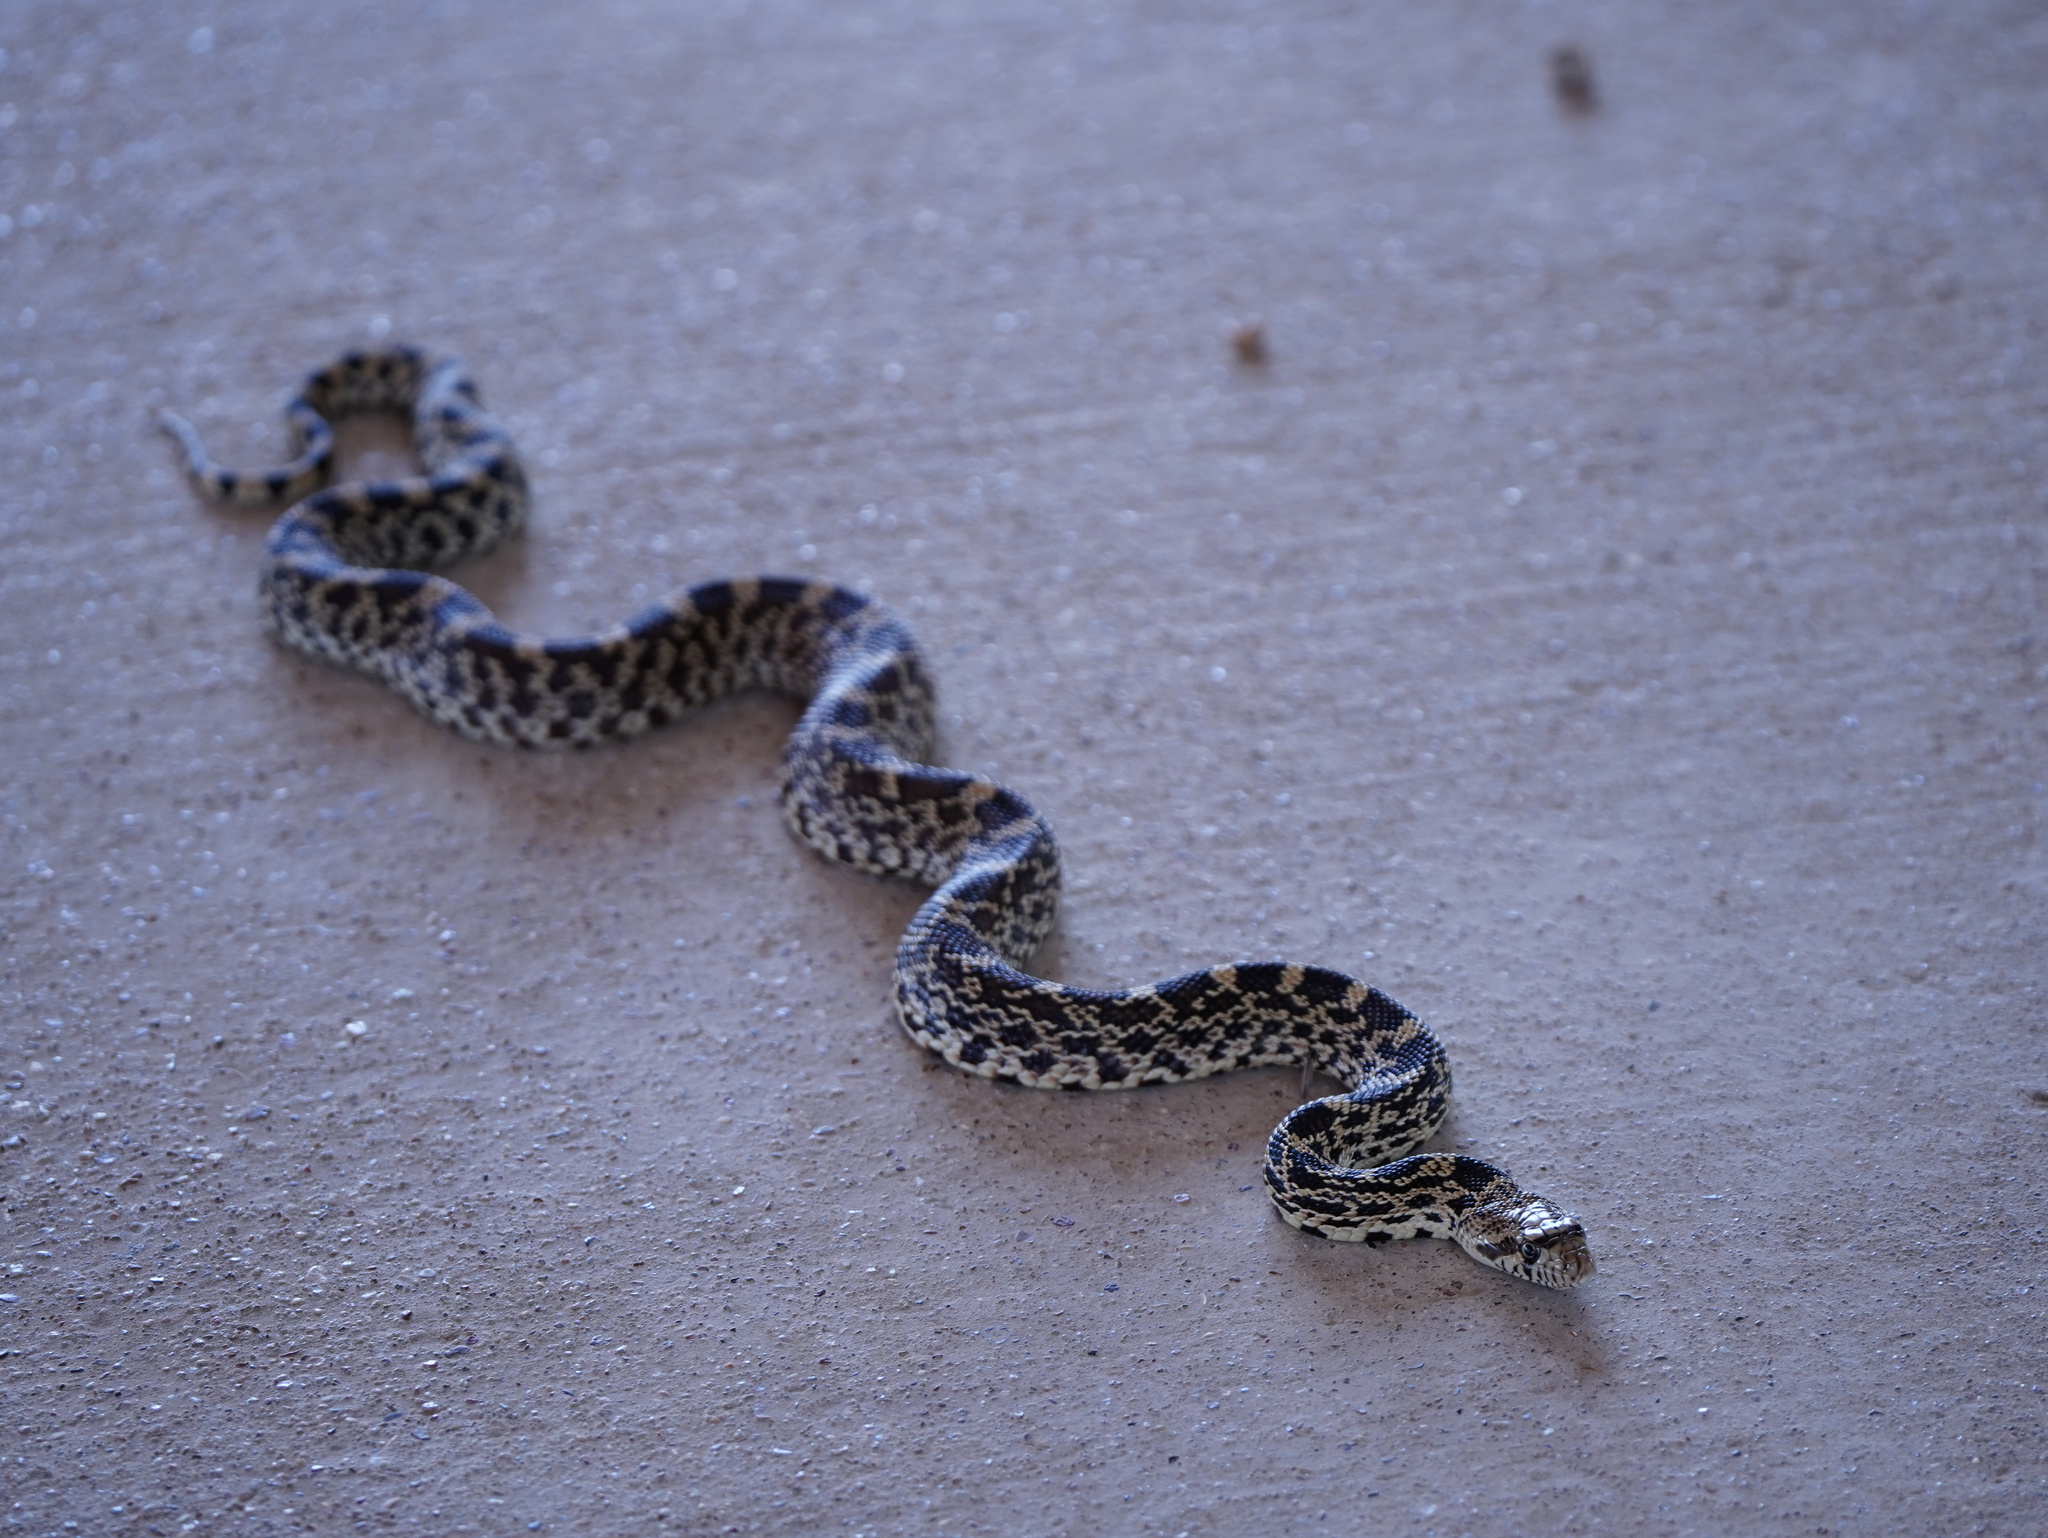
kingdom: Animalia
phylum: Chordata
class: Squamata
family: Colubridae
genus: Pituophis
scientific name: Pituophis catenifer
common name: Gopher snake
